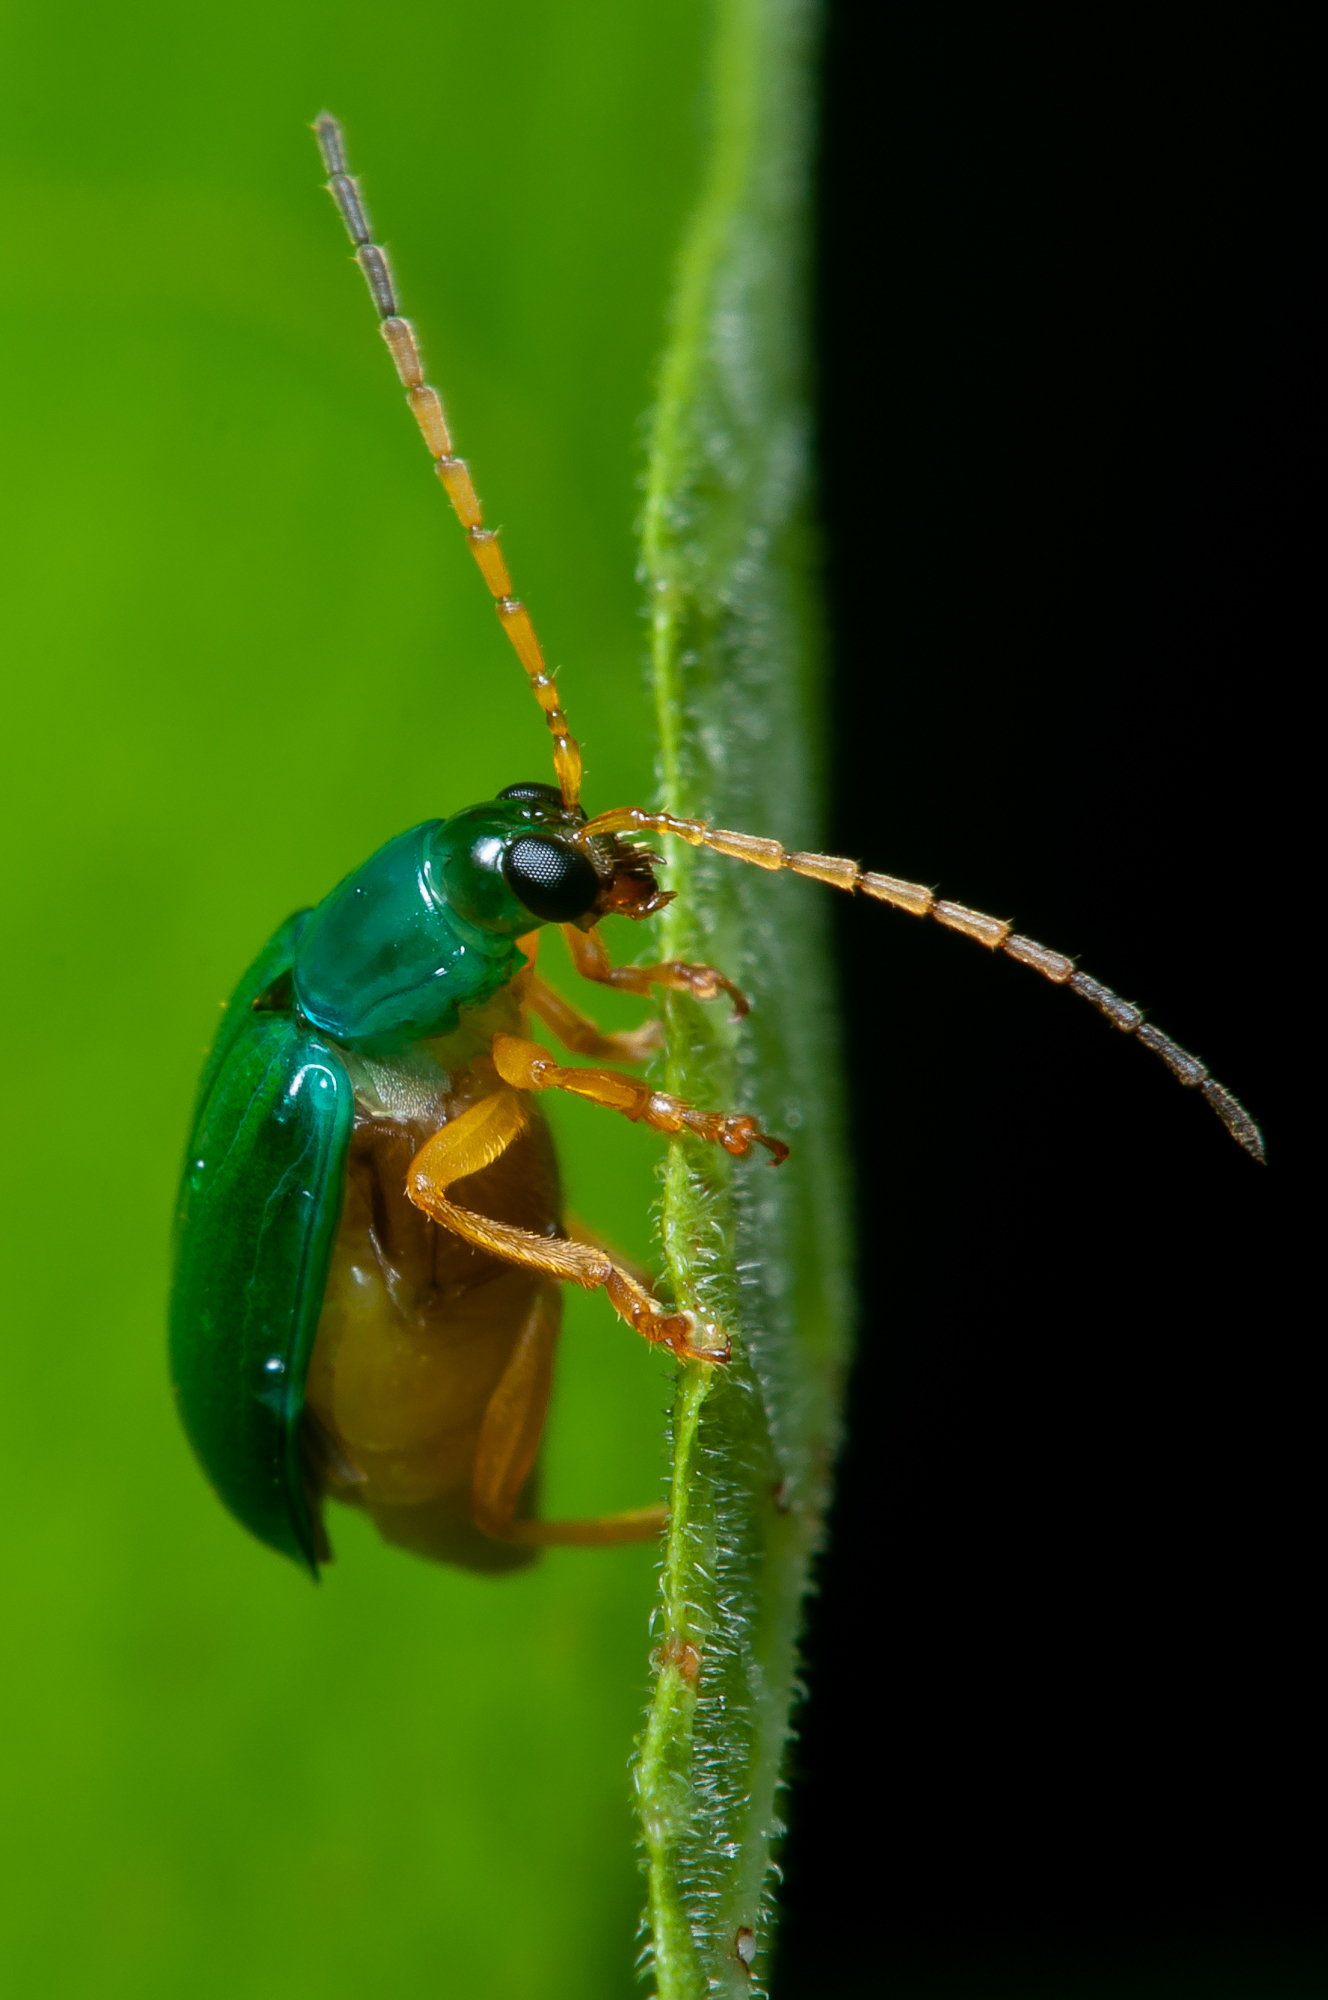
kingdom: Animalia
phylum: Arthropoda
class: Insecta
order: Coleoptera
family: Chrysomelidae
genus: Diabrotica
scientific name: Diabrotica
